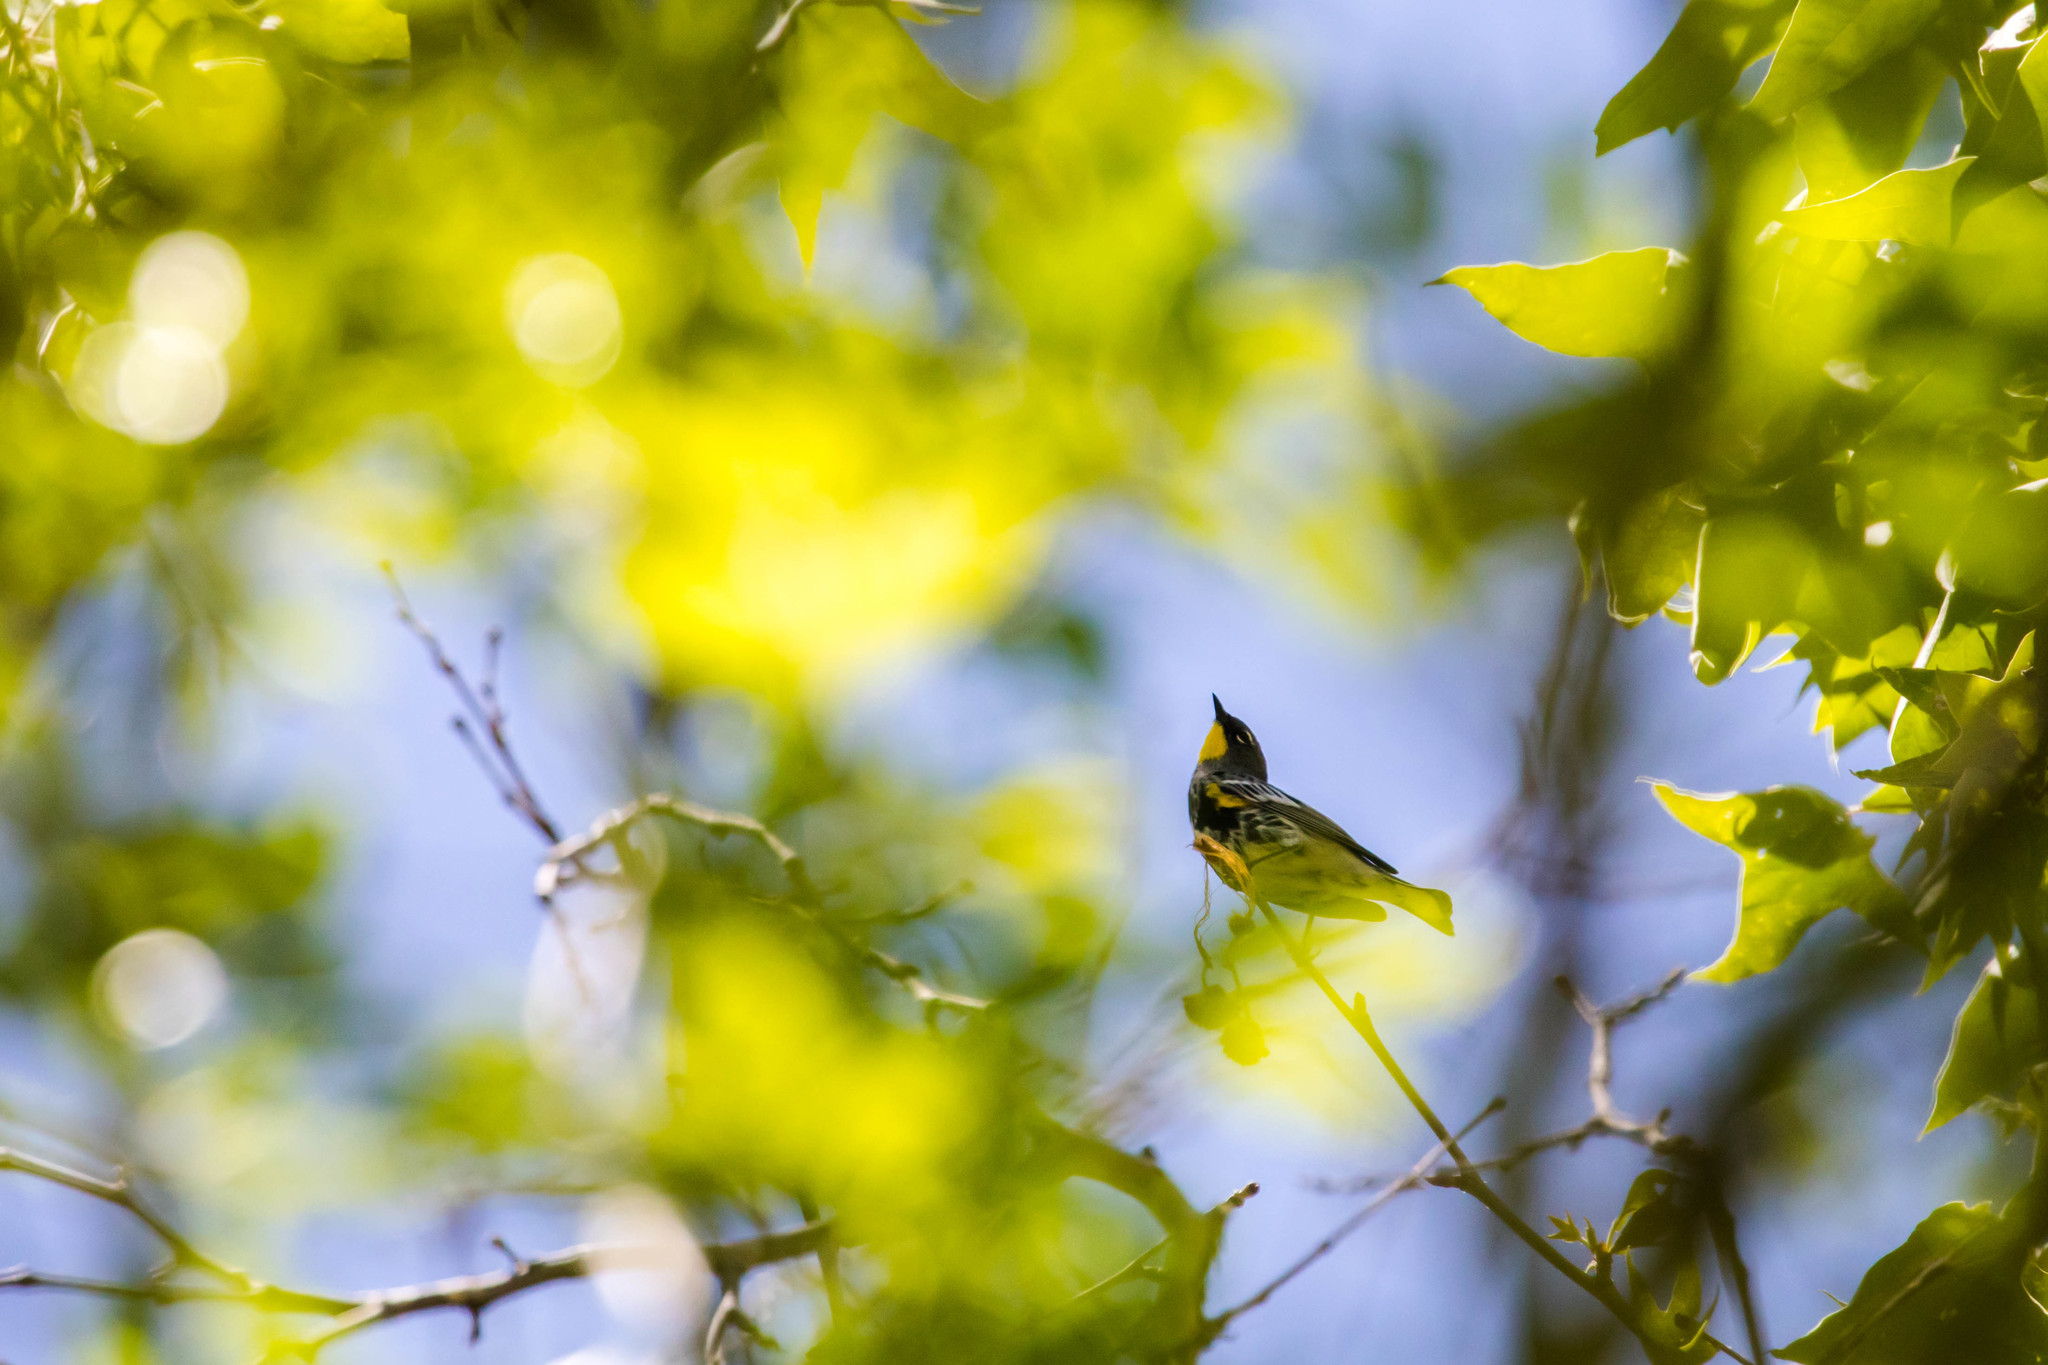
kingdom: Animalia
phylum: Chordata
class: Aves
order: Passeriformes
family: Parulidae
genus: Setophaga
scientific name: Setophaga auduboni
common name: Audubon's warbler
